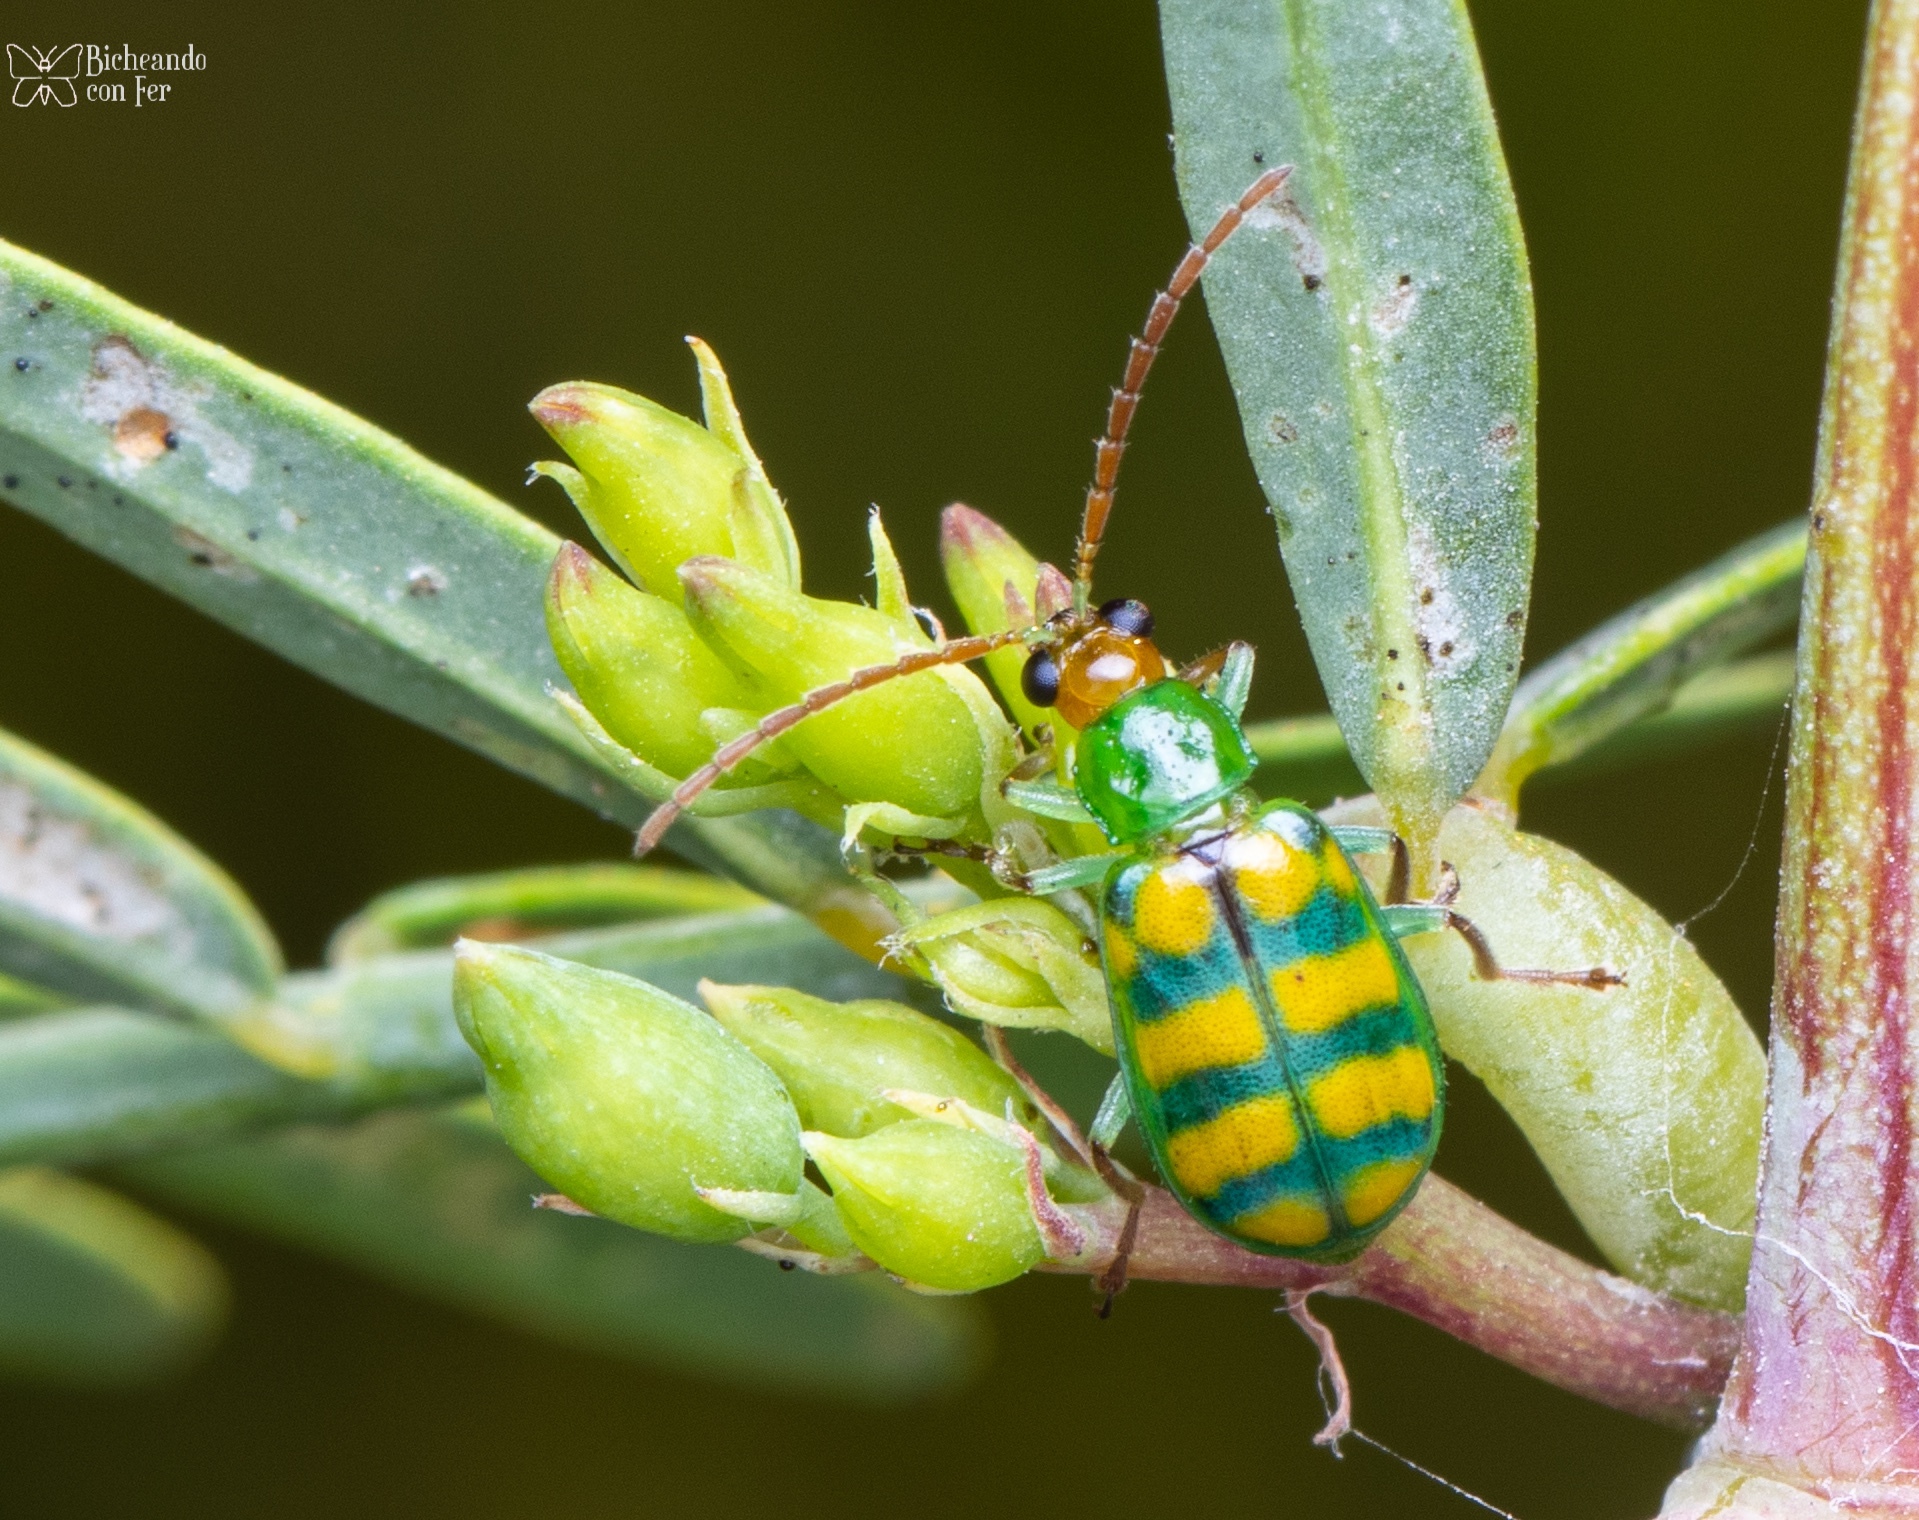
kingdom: Animalia
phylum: Arthropoda
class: Insecta
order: Coleoptera
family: Chrysomelidae
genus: Diabrotica
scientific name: Diabrotica balteata
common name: Leaf beetle
